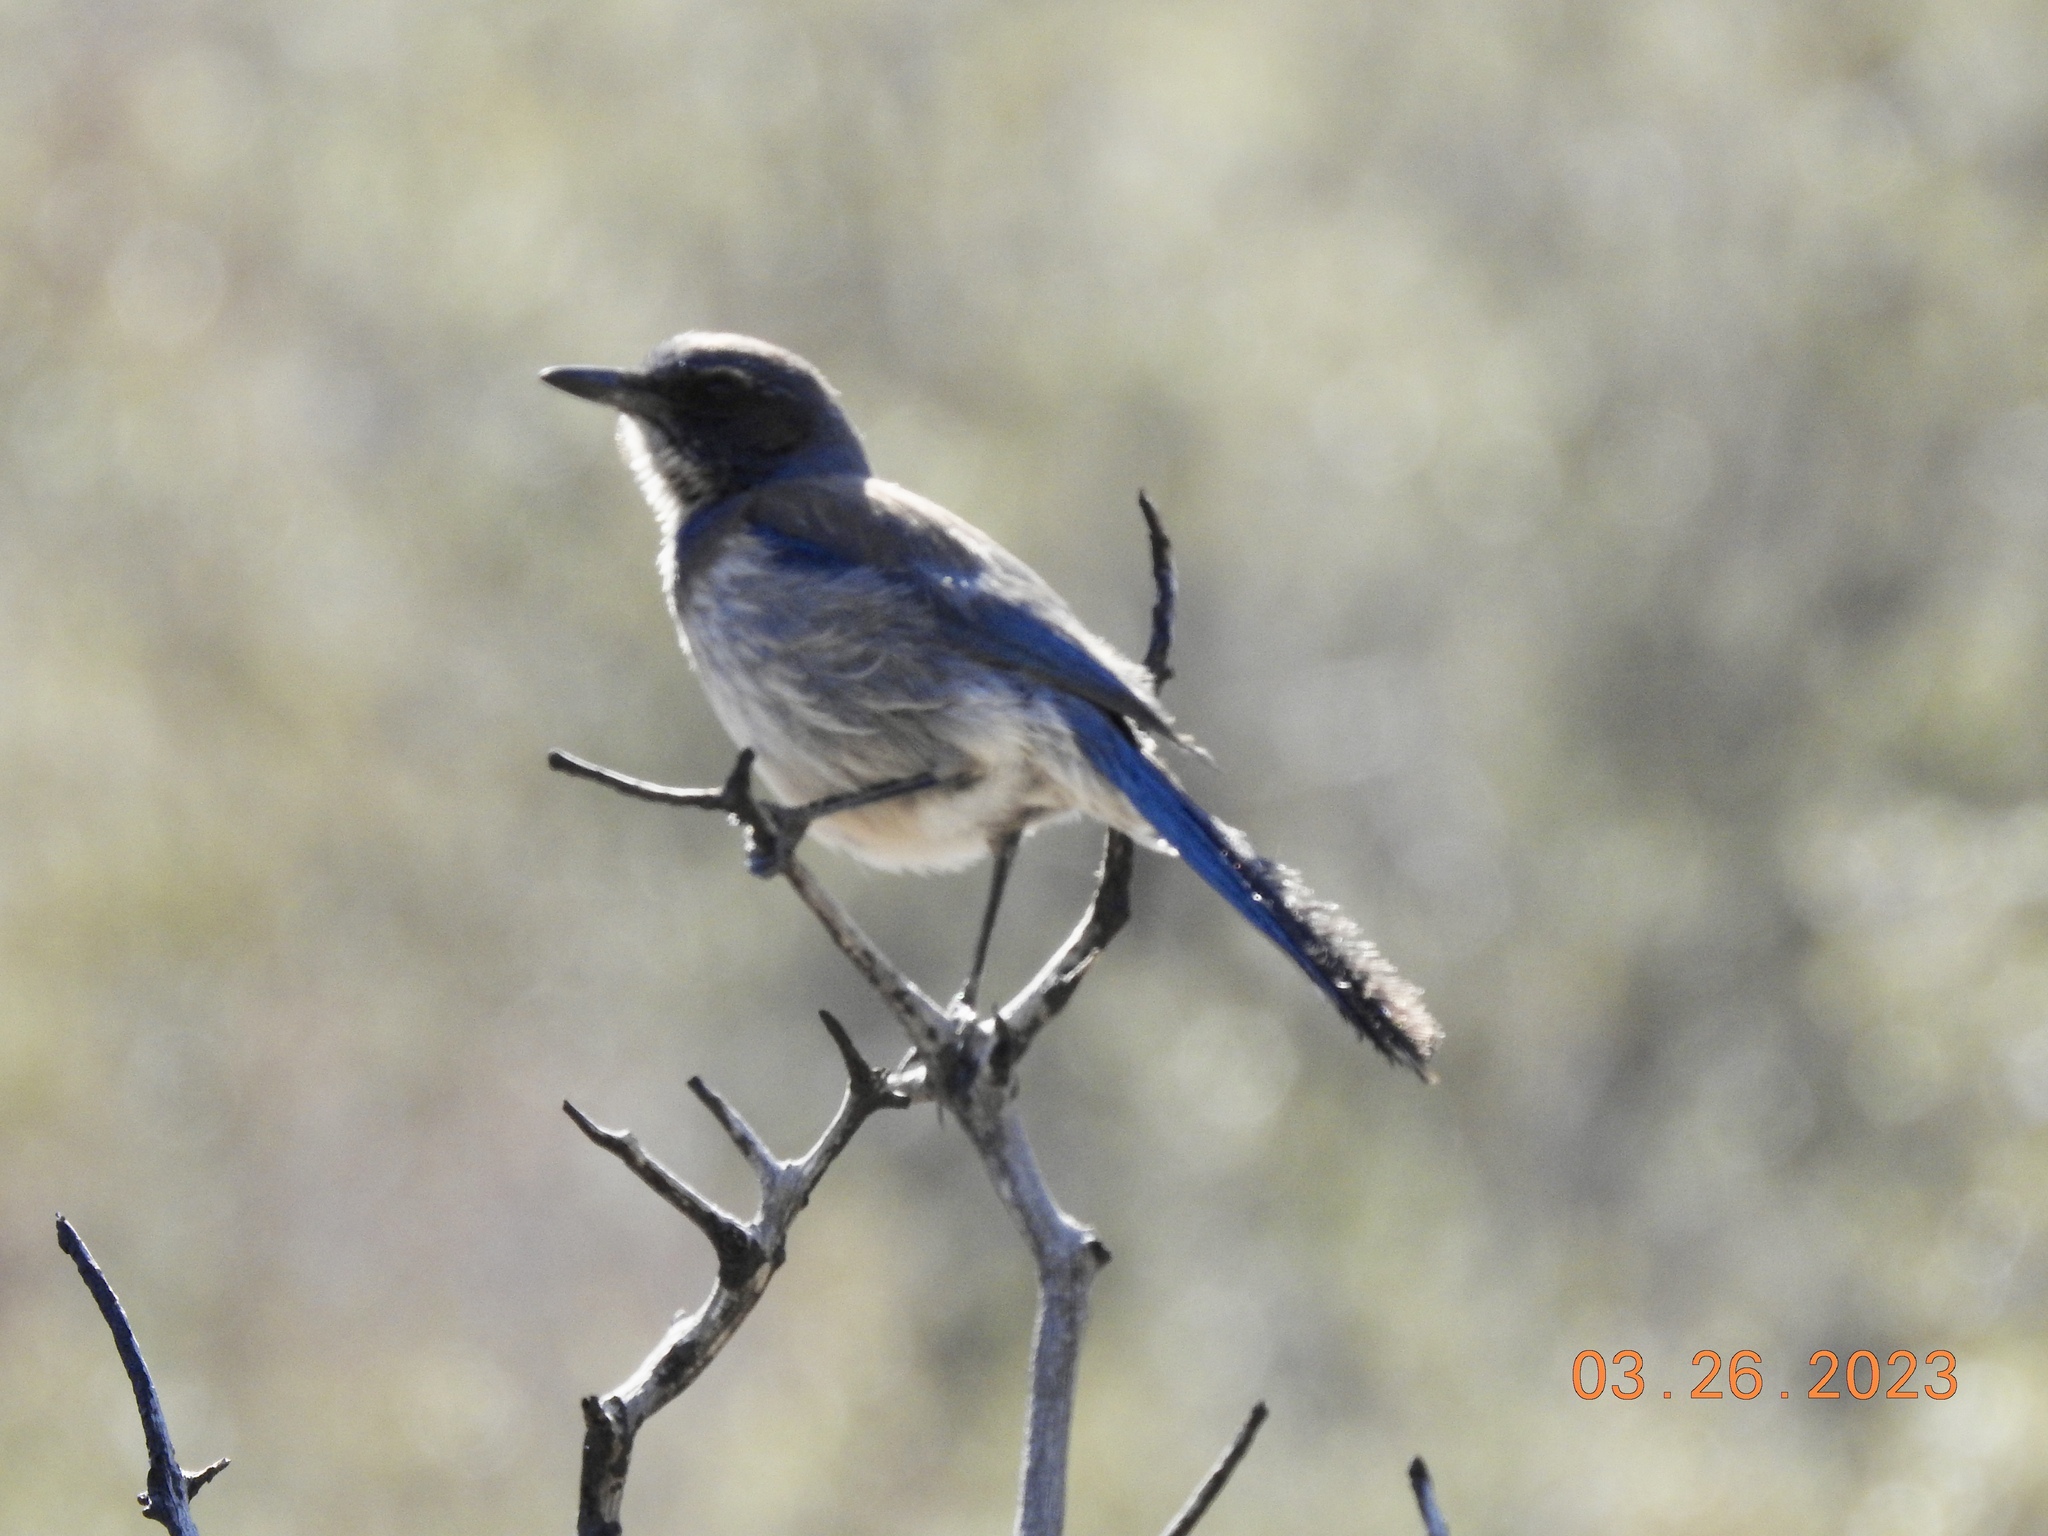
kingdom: Animalia
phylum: Chordata
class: Aves
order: Passeriformes
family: Corvidae
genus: Aphelocoma
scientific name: Aphelocoma californica
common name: California scrub-jay
